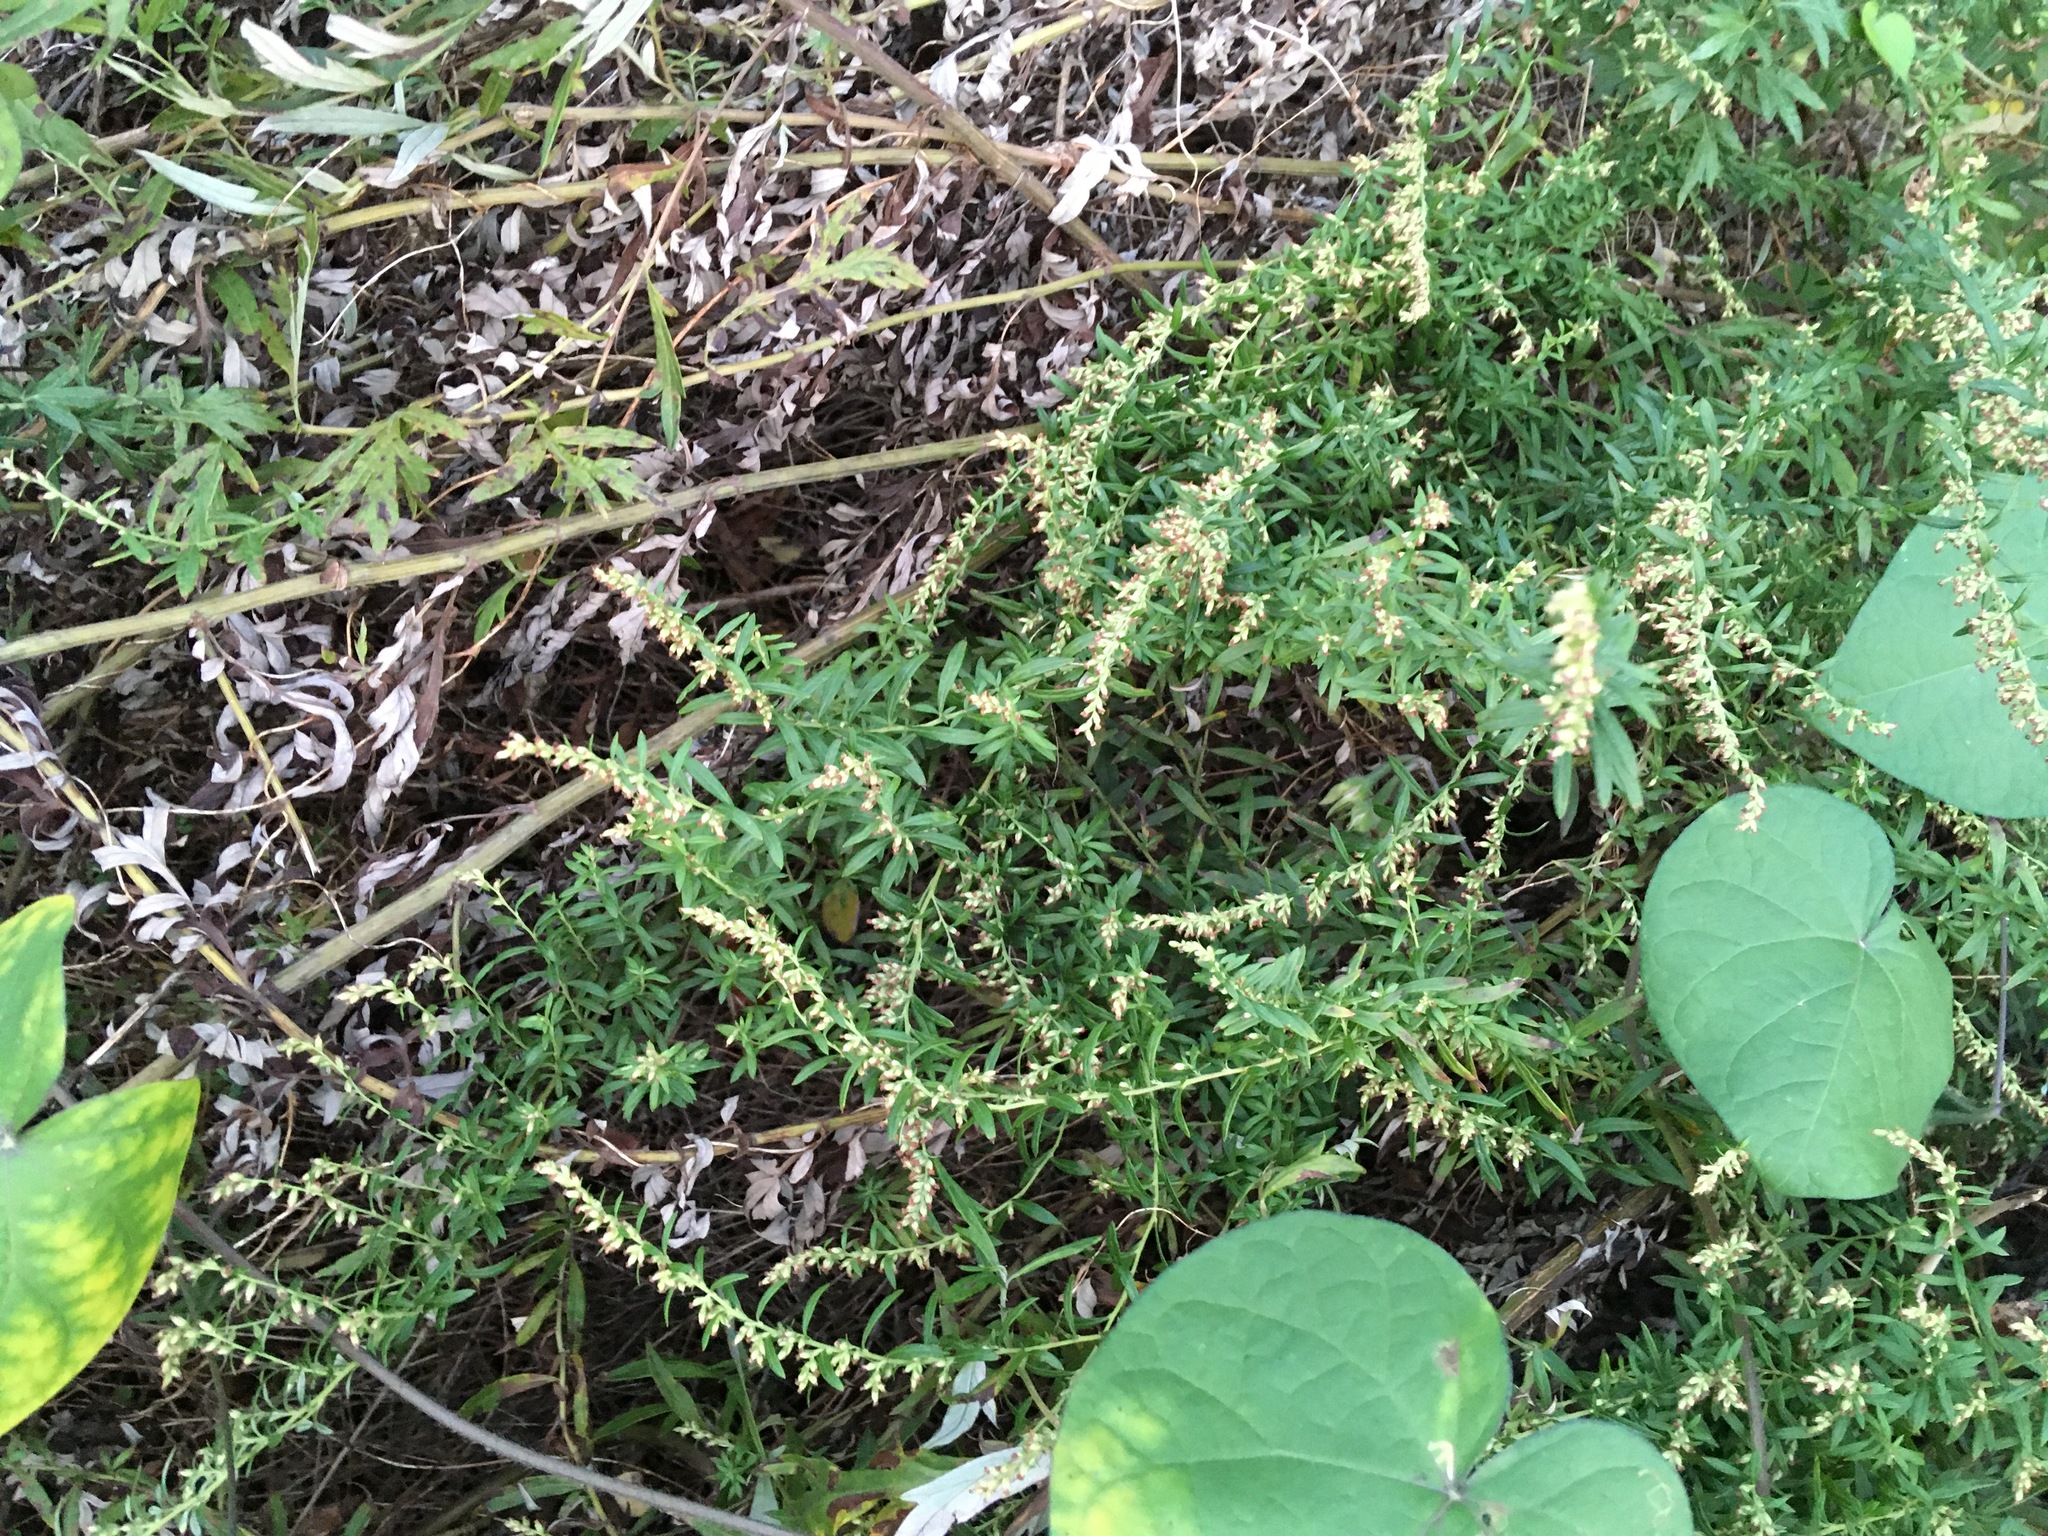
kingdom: Plantae
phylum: Tracheophyta
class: Magnoliopsida
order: Asterales
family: Asteraceae
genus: Artemisia
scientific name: Artemisia vulgaris
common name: Mugwort
